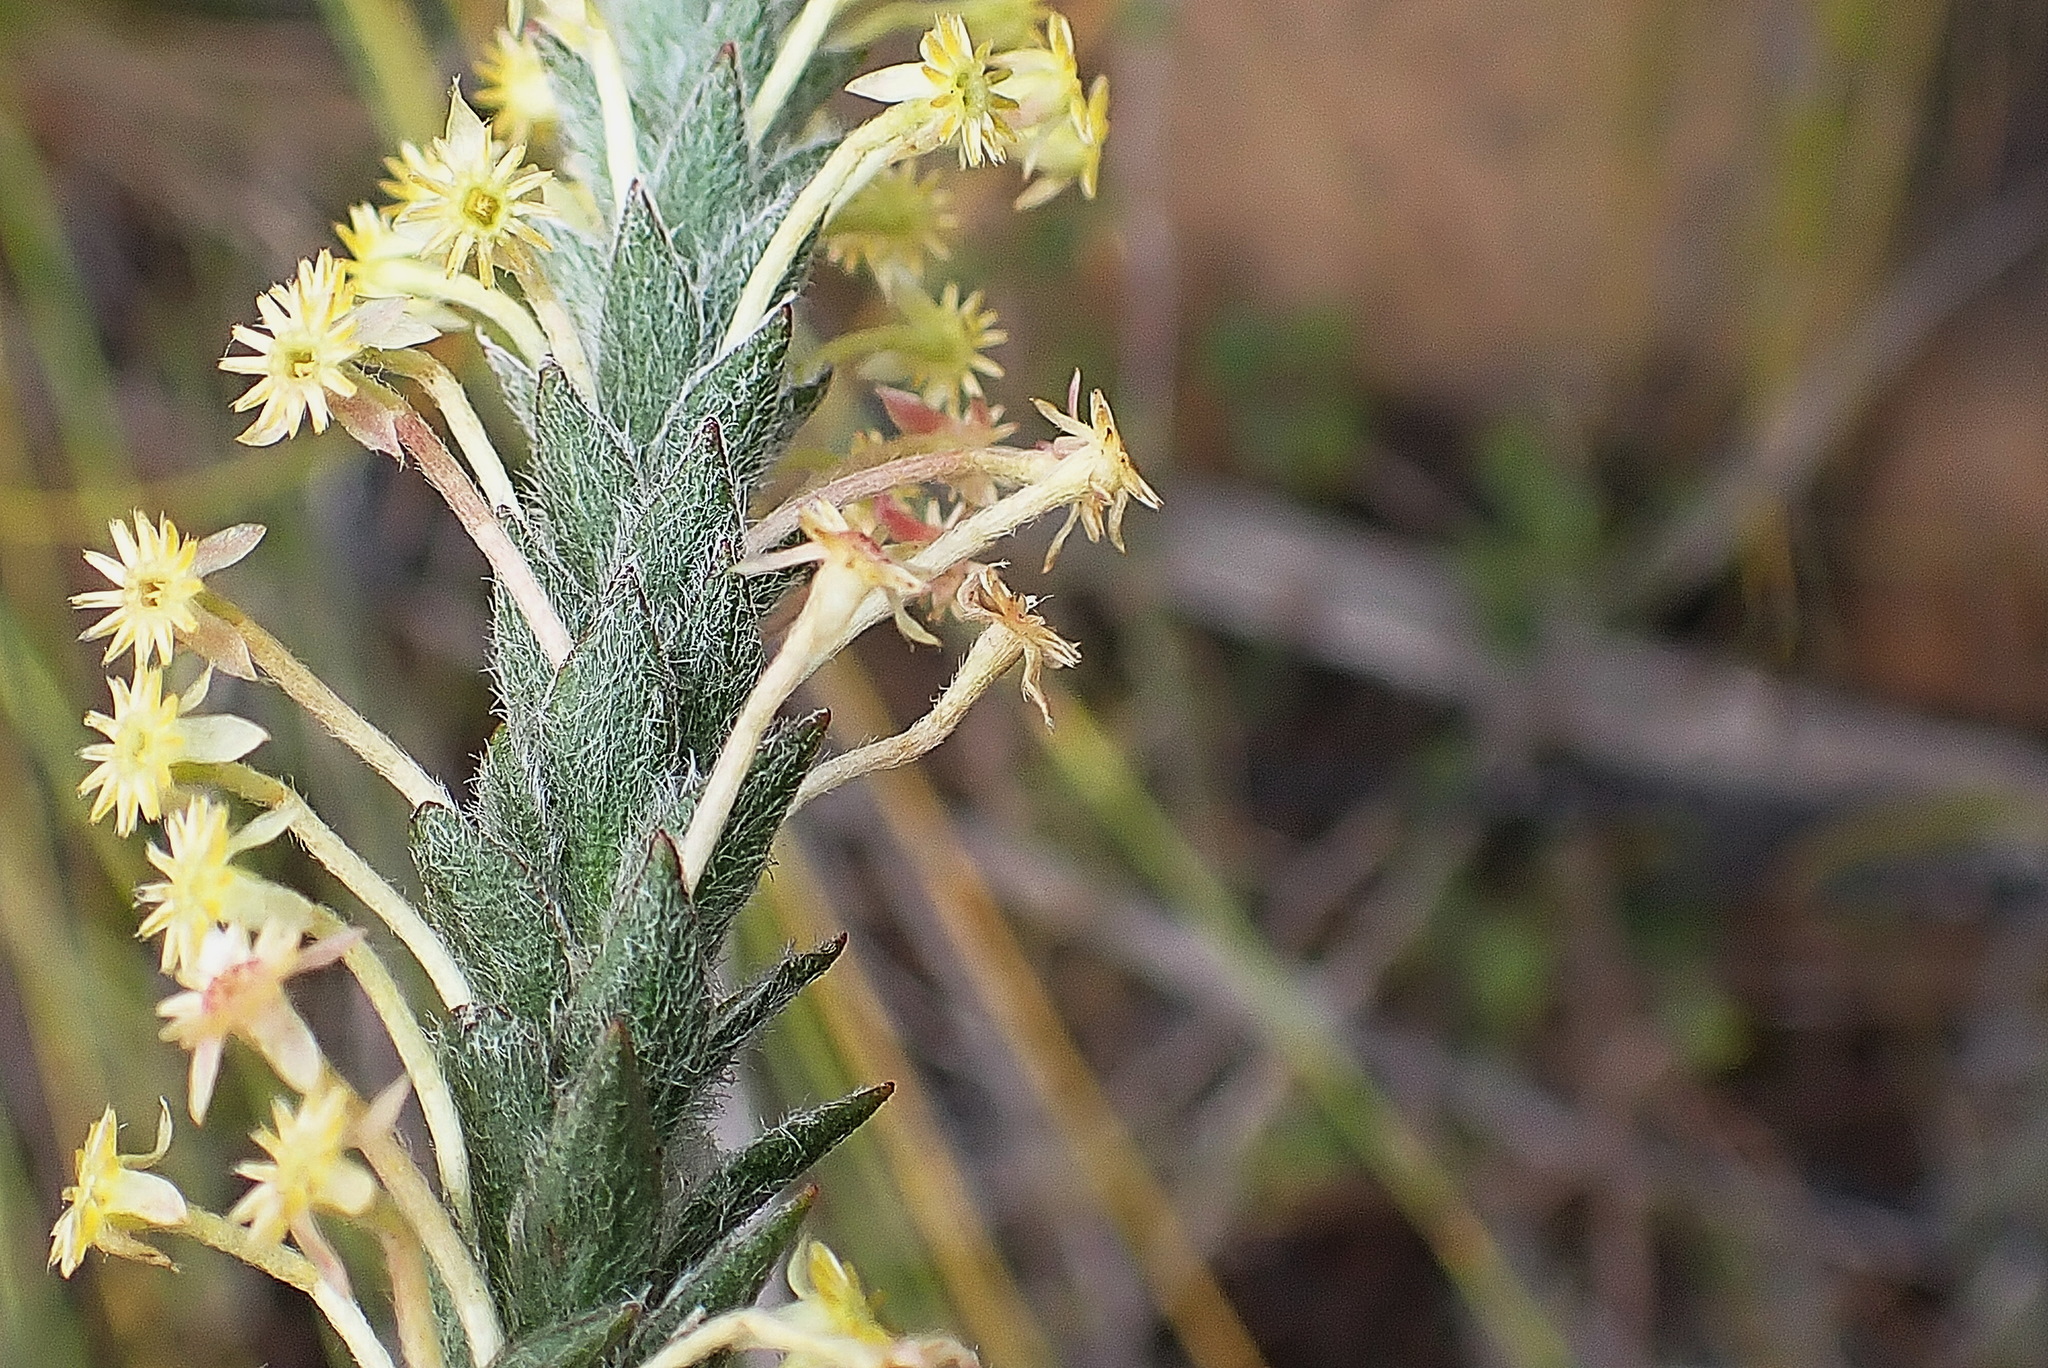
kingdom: Plantae
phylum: Tracheophyta
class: Magnoliopsida
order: Malvales
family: Thymelaeaceae
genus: Struthiola
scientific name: Struthiola tomentosa
